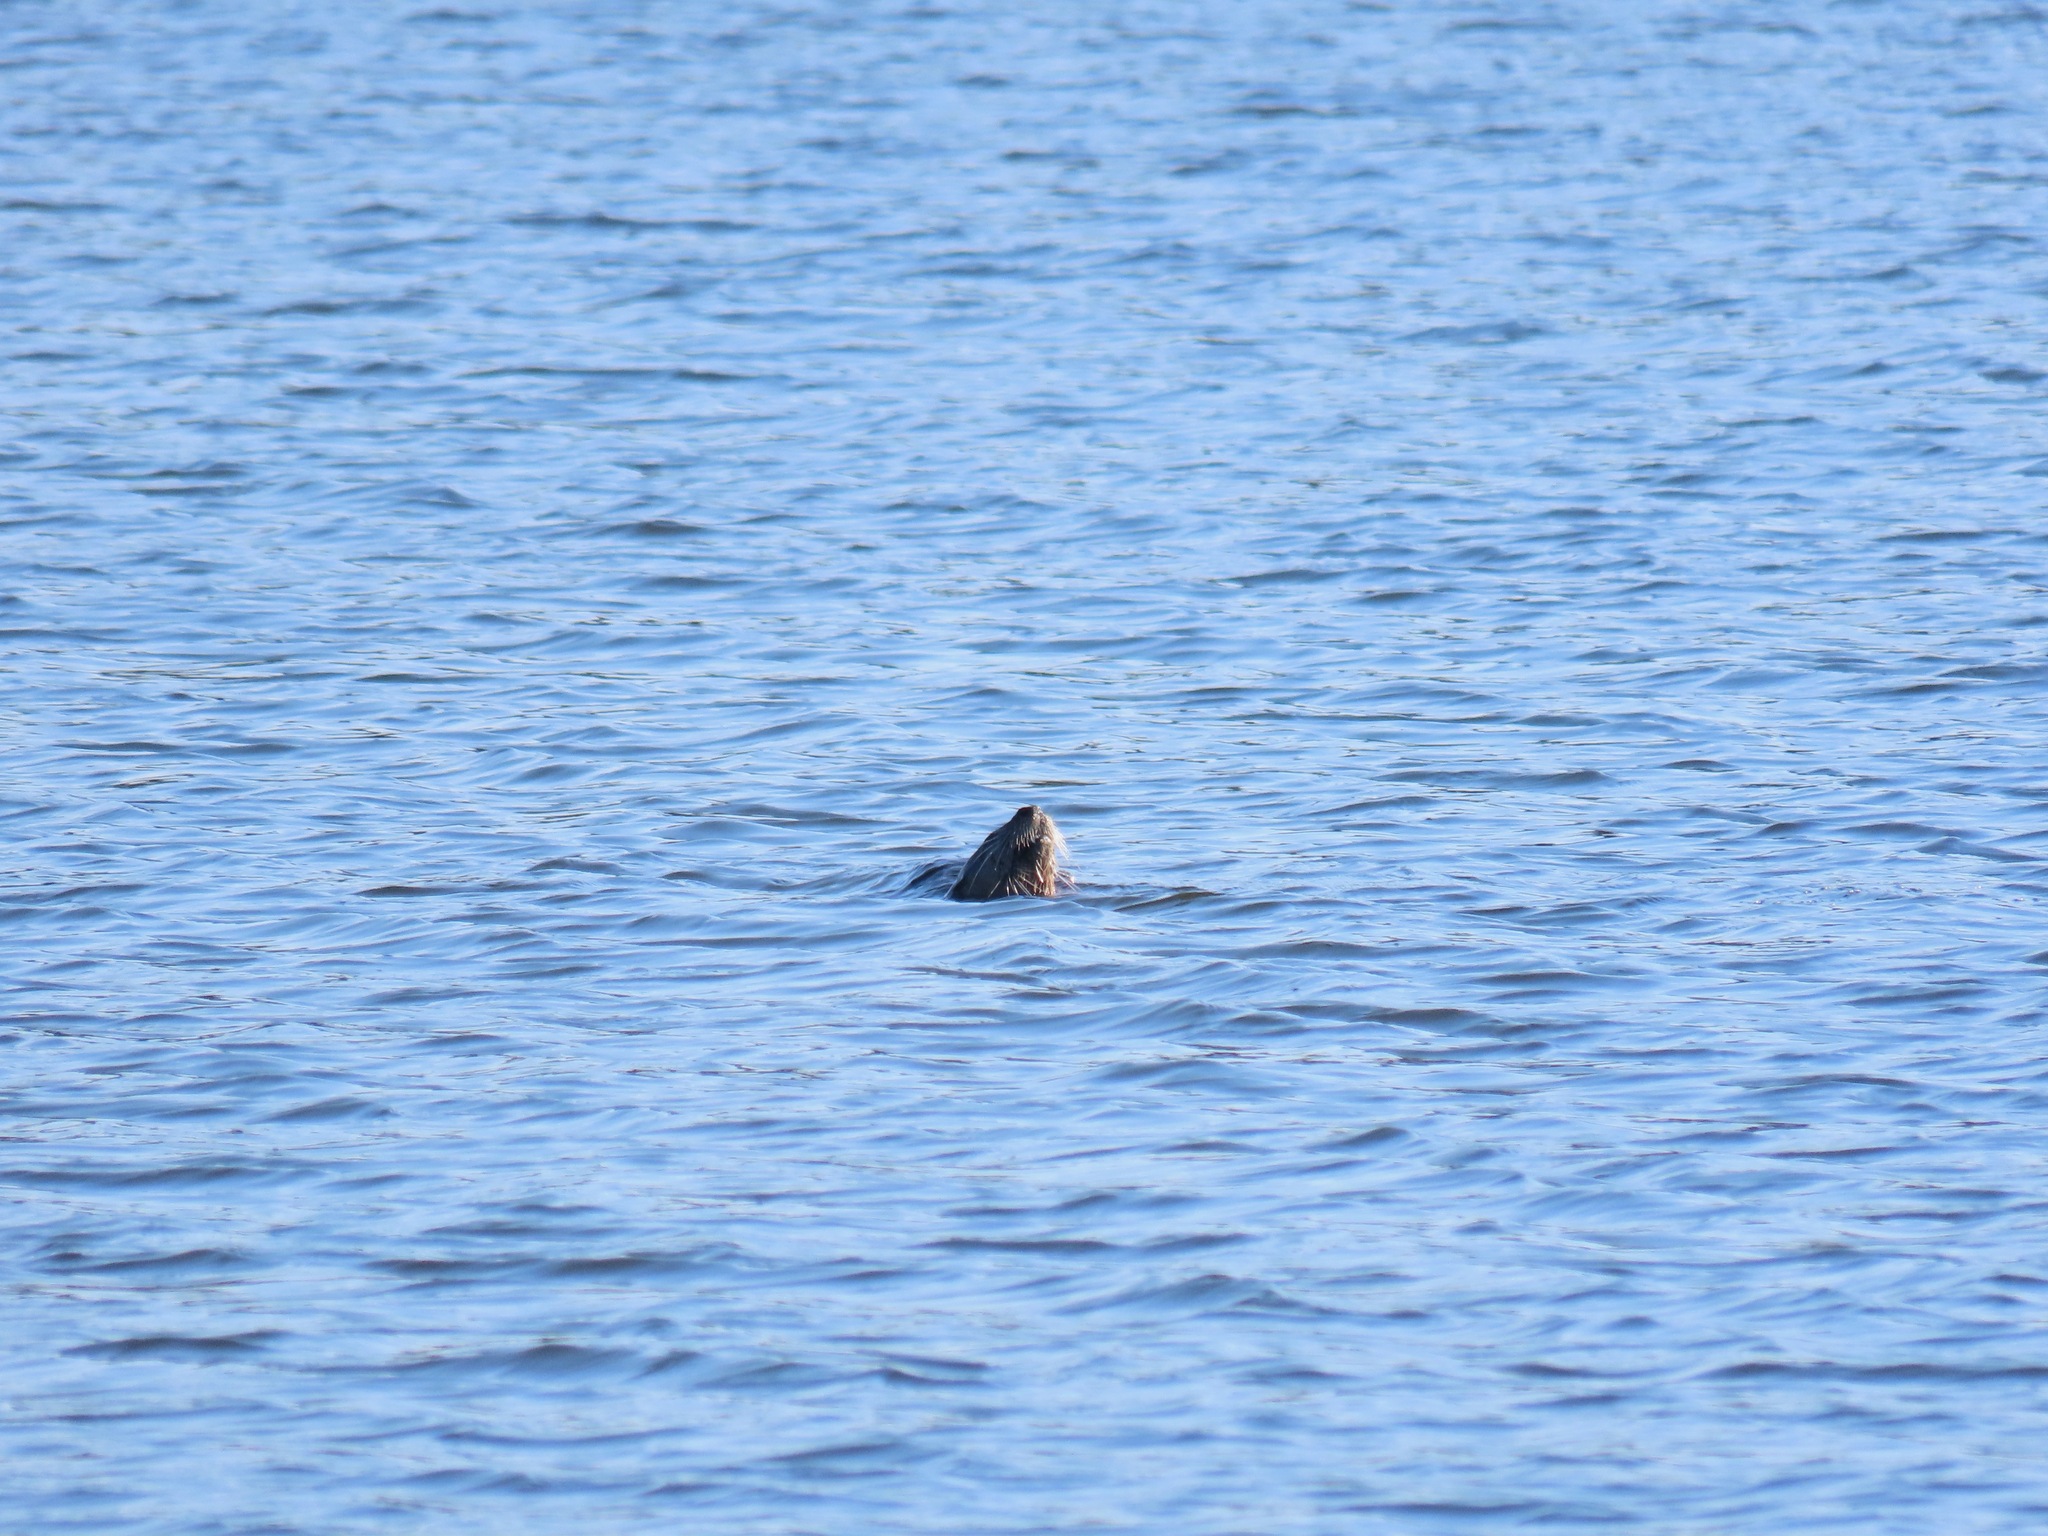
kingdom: Animalia
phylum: Chordata
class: Mammalia
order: Carnivora
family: Mustelidae
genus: Lontra
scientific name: Lontra canadensis
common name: North american river otter
